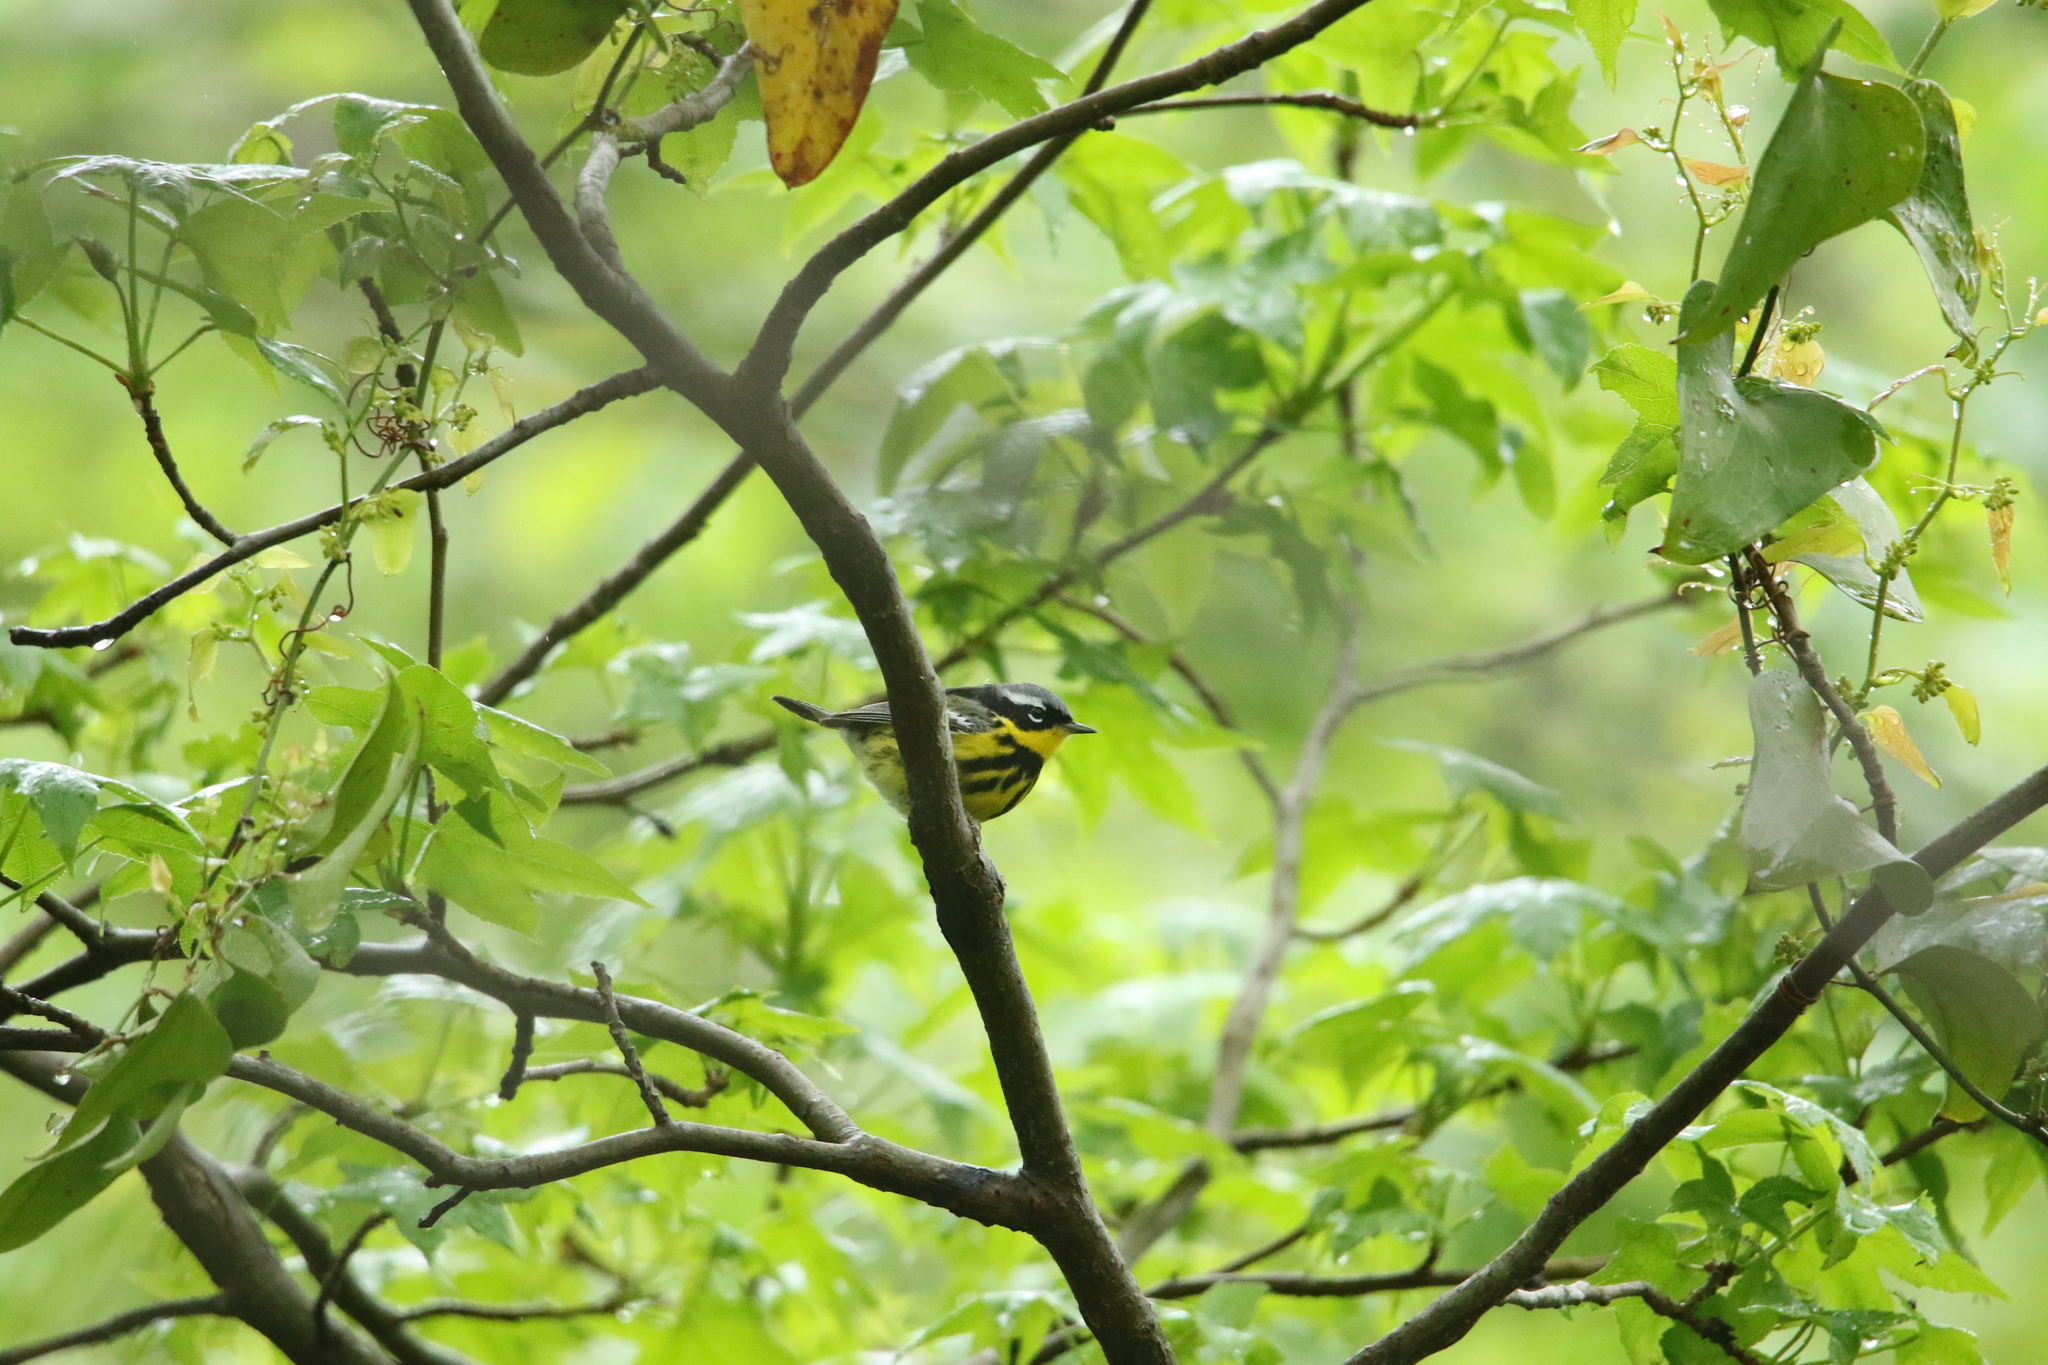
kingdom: Animalia
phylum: Chordata
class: Aves
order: Passeriformes
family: Parulidae
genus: Setophaga
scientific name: Setophaga magnolia
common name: Magnolia warbler
